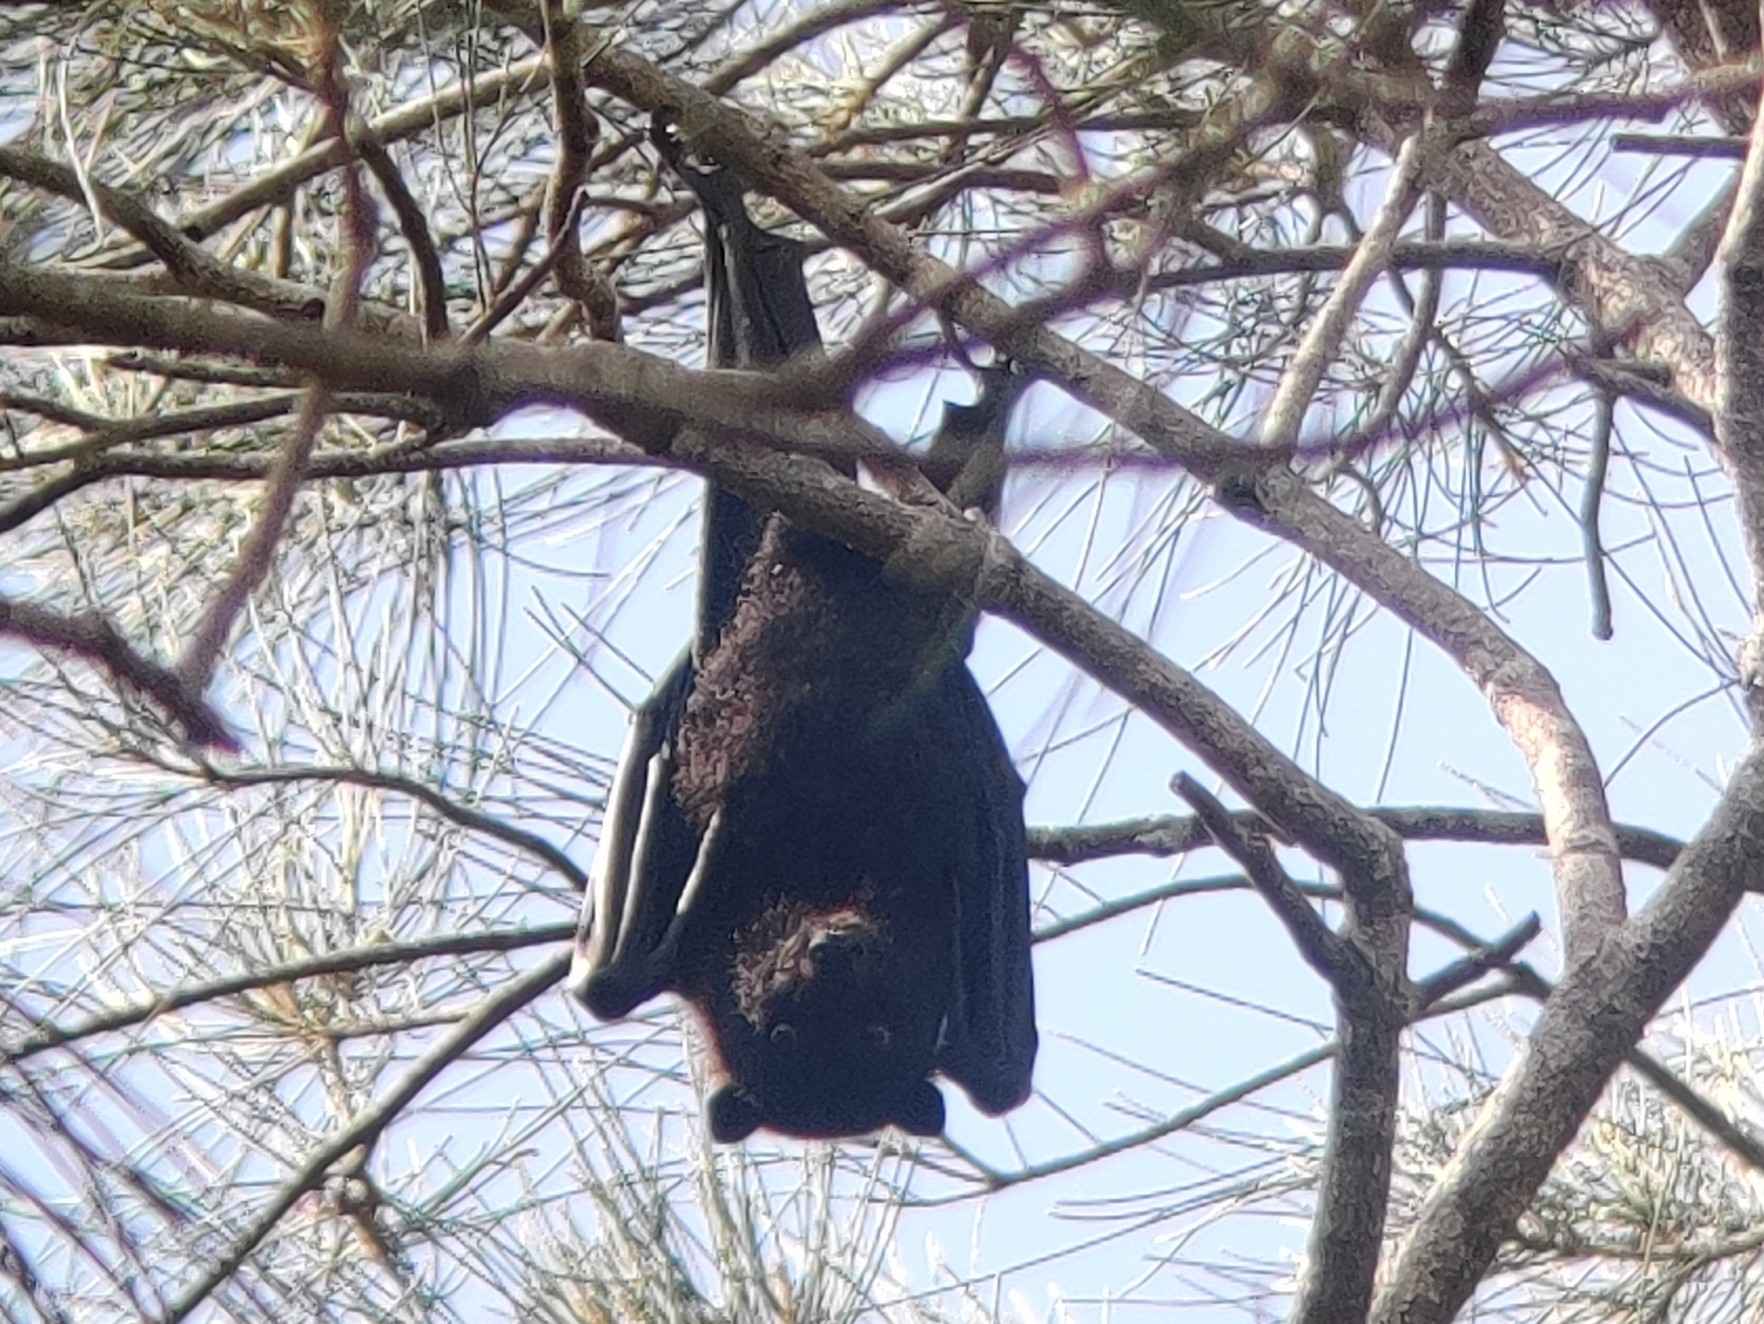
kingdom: Animalia
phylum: Chordata
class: Mammalia
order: Chiroptera
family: Pteropodidae
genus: Pteropus
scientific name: Pteropus alecto
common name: Black flying fox
